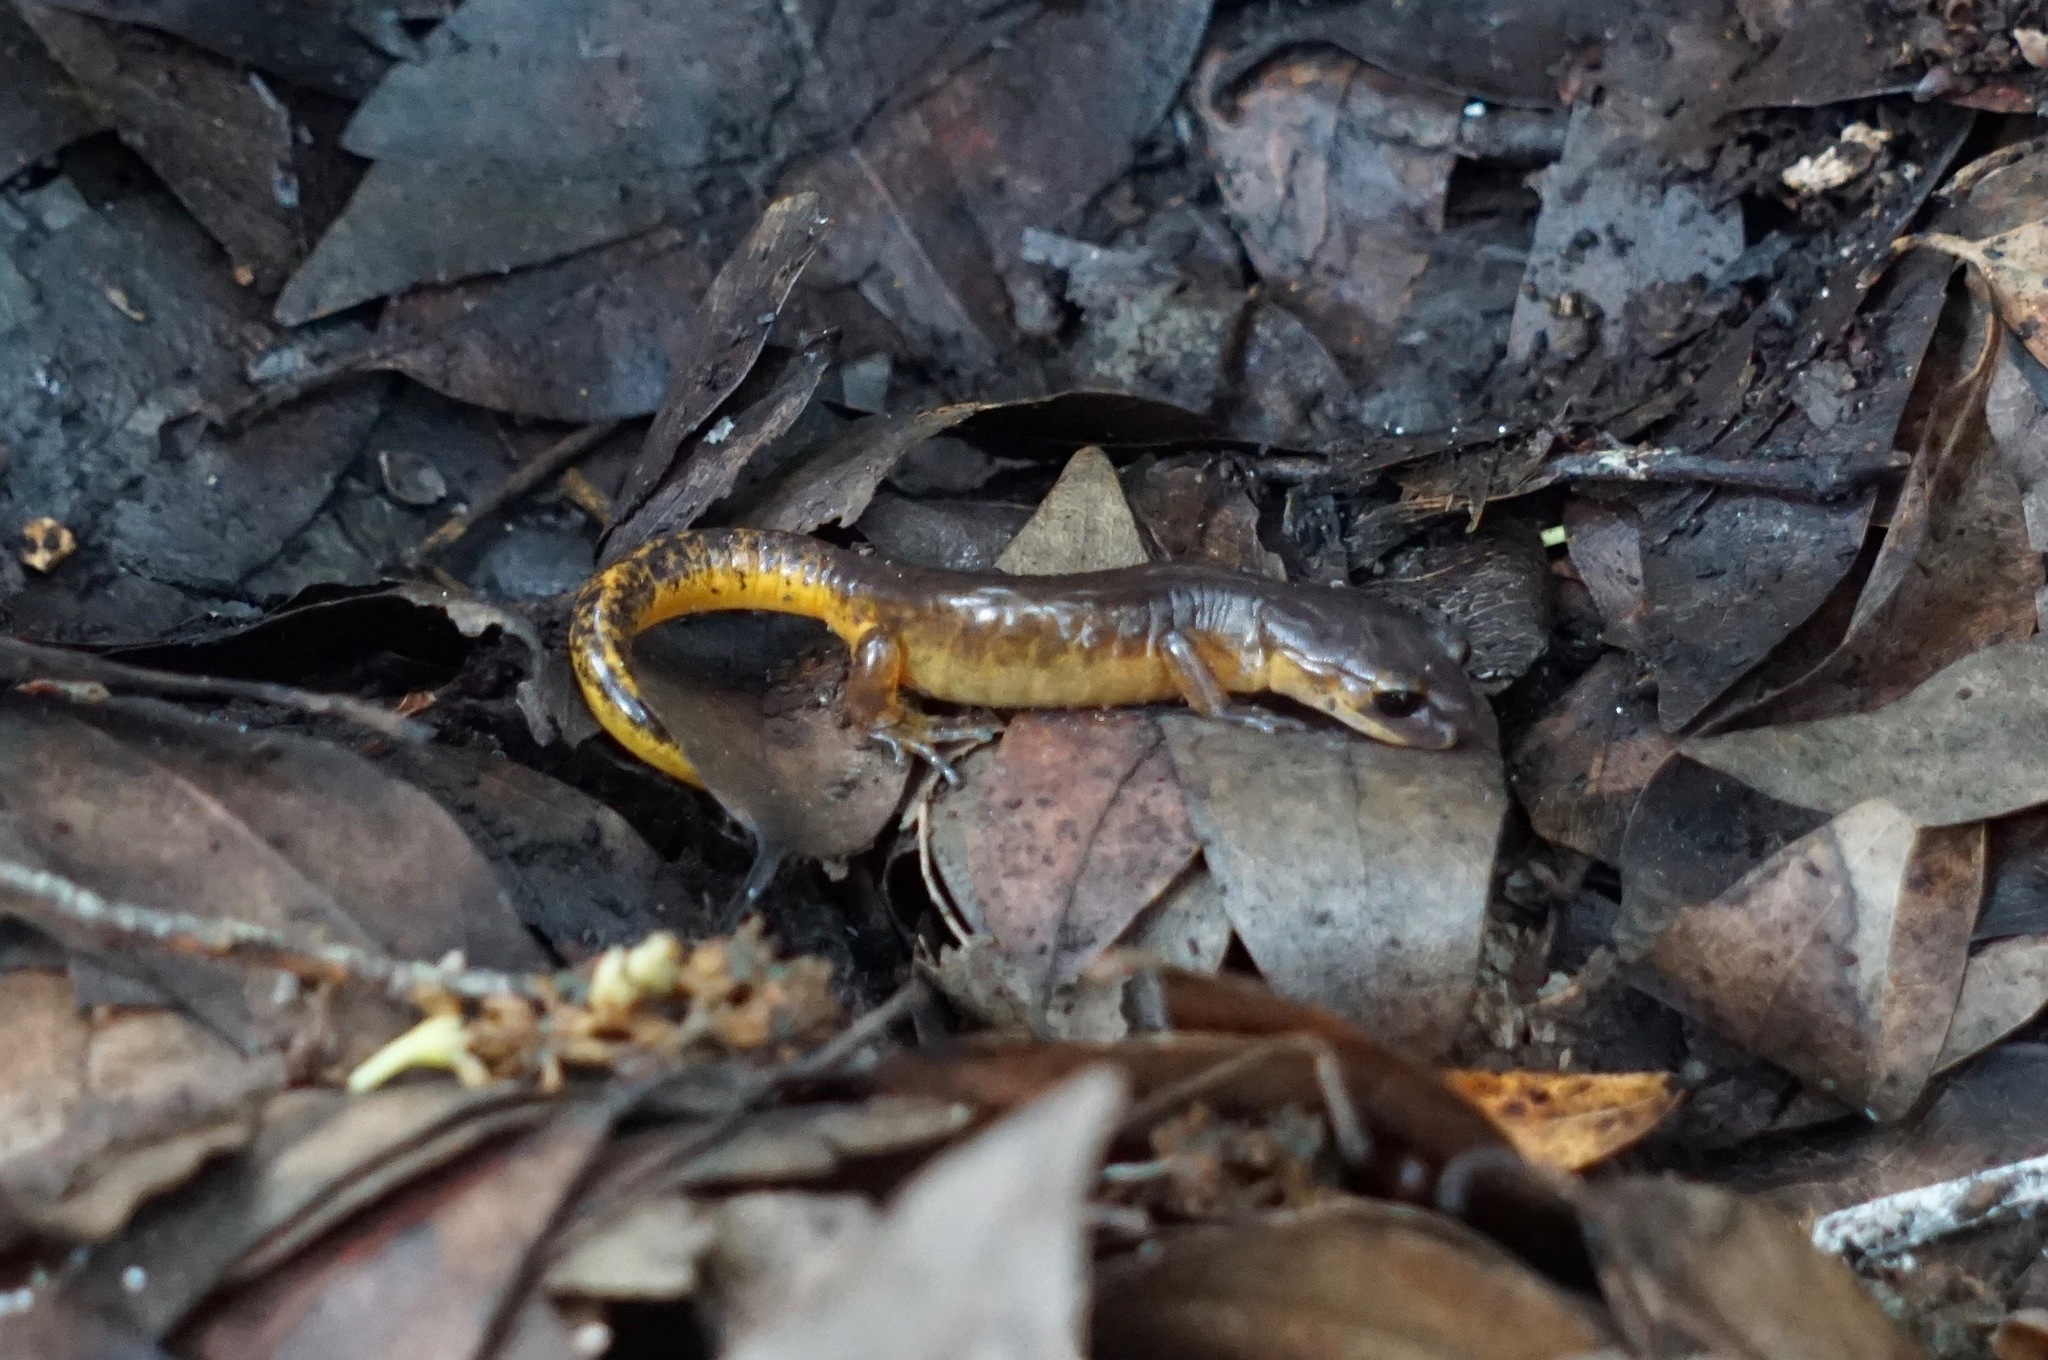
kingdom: Animalia
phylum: Chordata
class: Amphibia
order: Caudata
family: Plethodontidae
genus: Ensatina
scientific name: Ensatina eschscholtzii
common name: Ensatina
